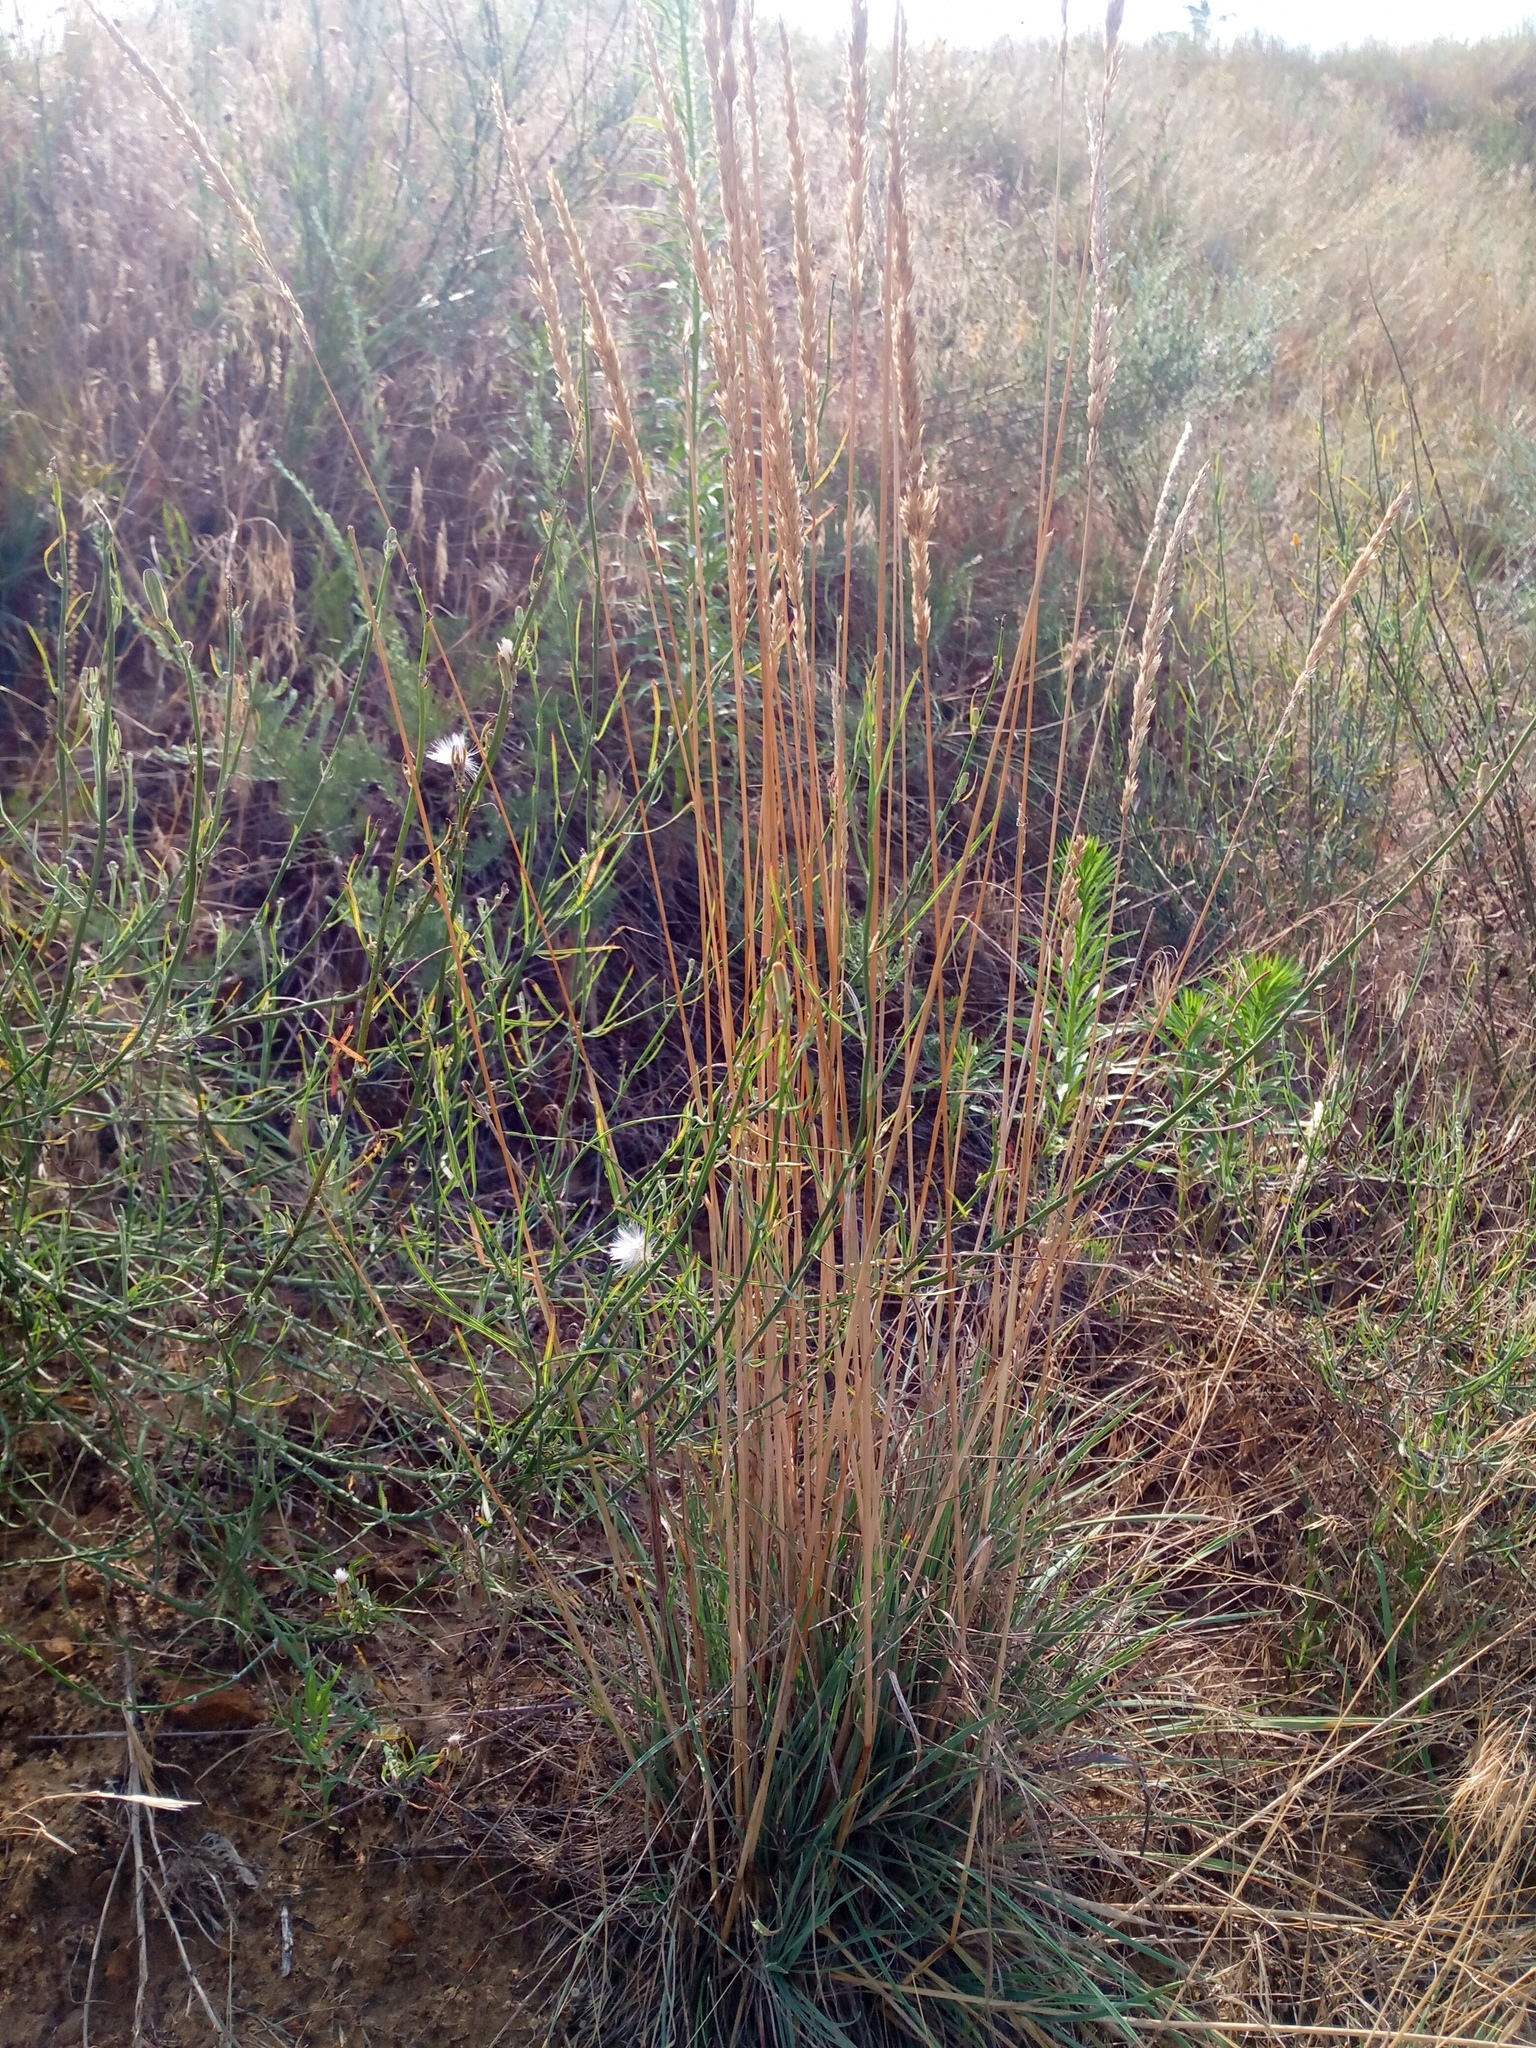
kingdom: Plantae
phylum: Tracheophyta
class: Liliopsida
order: Poales
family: Poaceae
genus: Koeleria
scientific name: Koeleria glauca
